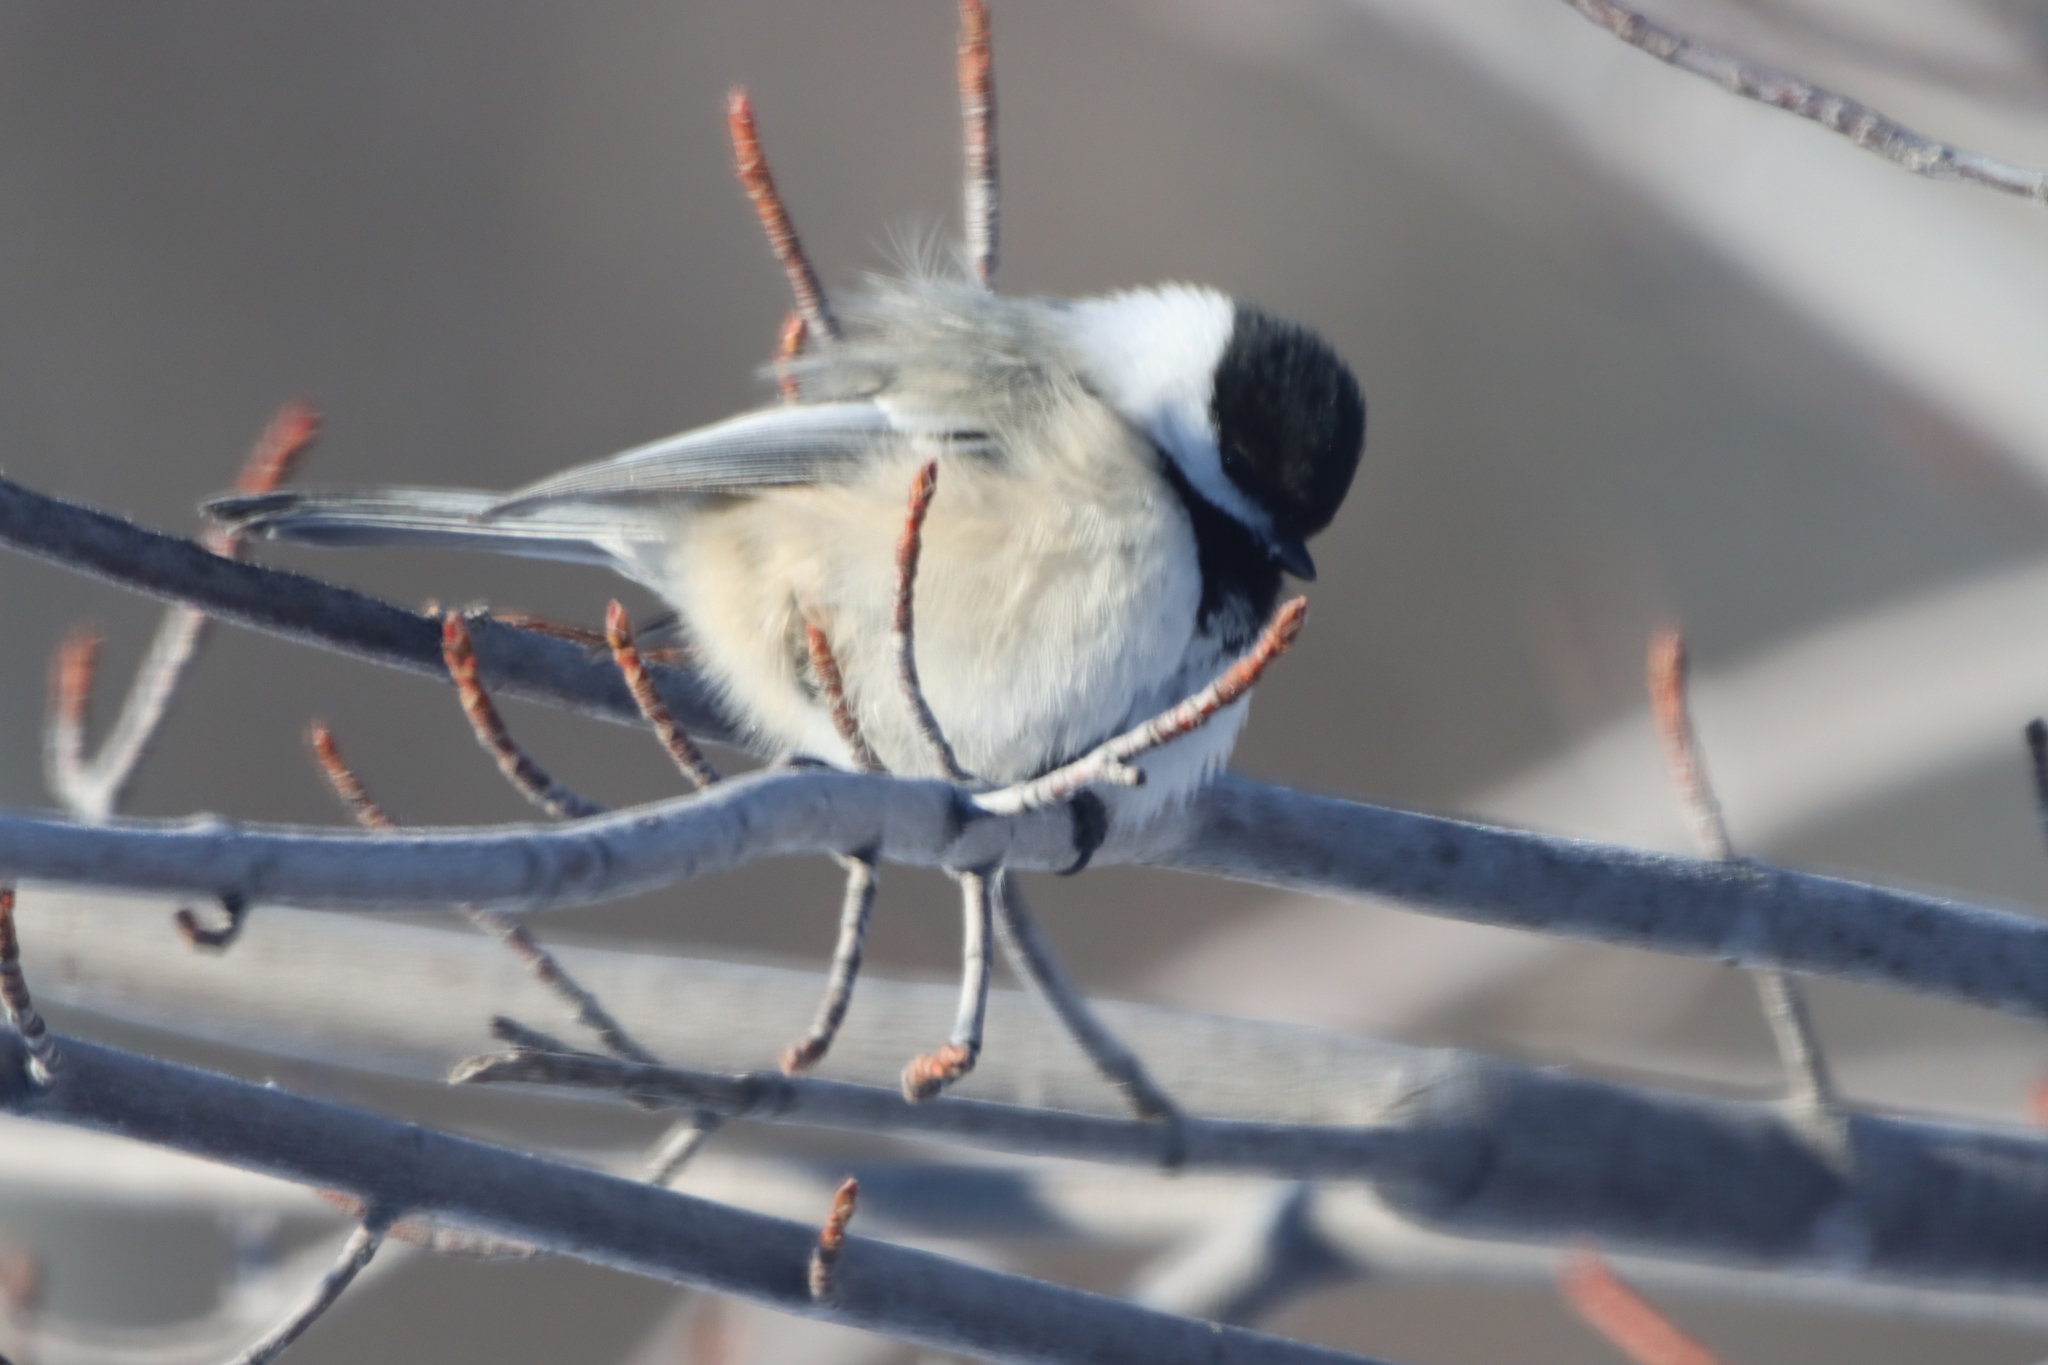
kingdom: Animalia
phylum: Chordata
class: Aves
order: Passeriformes
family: Paridae
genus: Poecile
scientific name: Poecile atricapillus
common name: Black-capped chickadee
